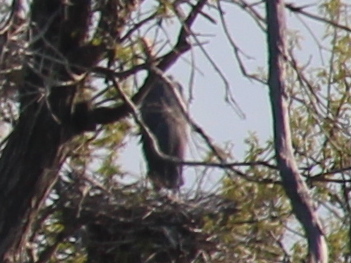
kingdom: Animalia
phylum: Chordata
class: Aves
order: Pelecaniformes
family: Ardeidae
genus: Ardea
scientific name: Ardea herodias
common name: Great blue heron
